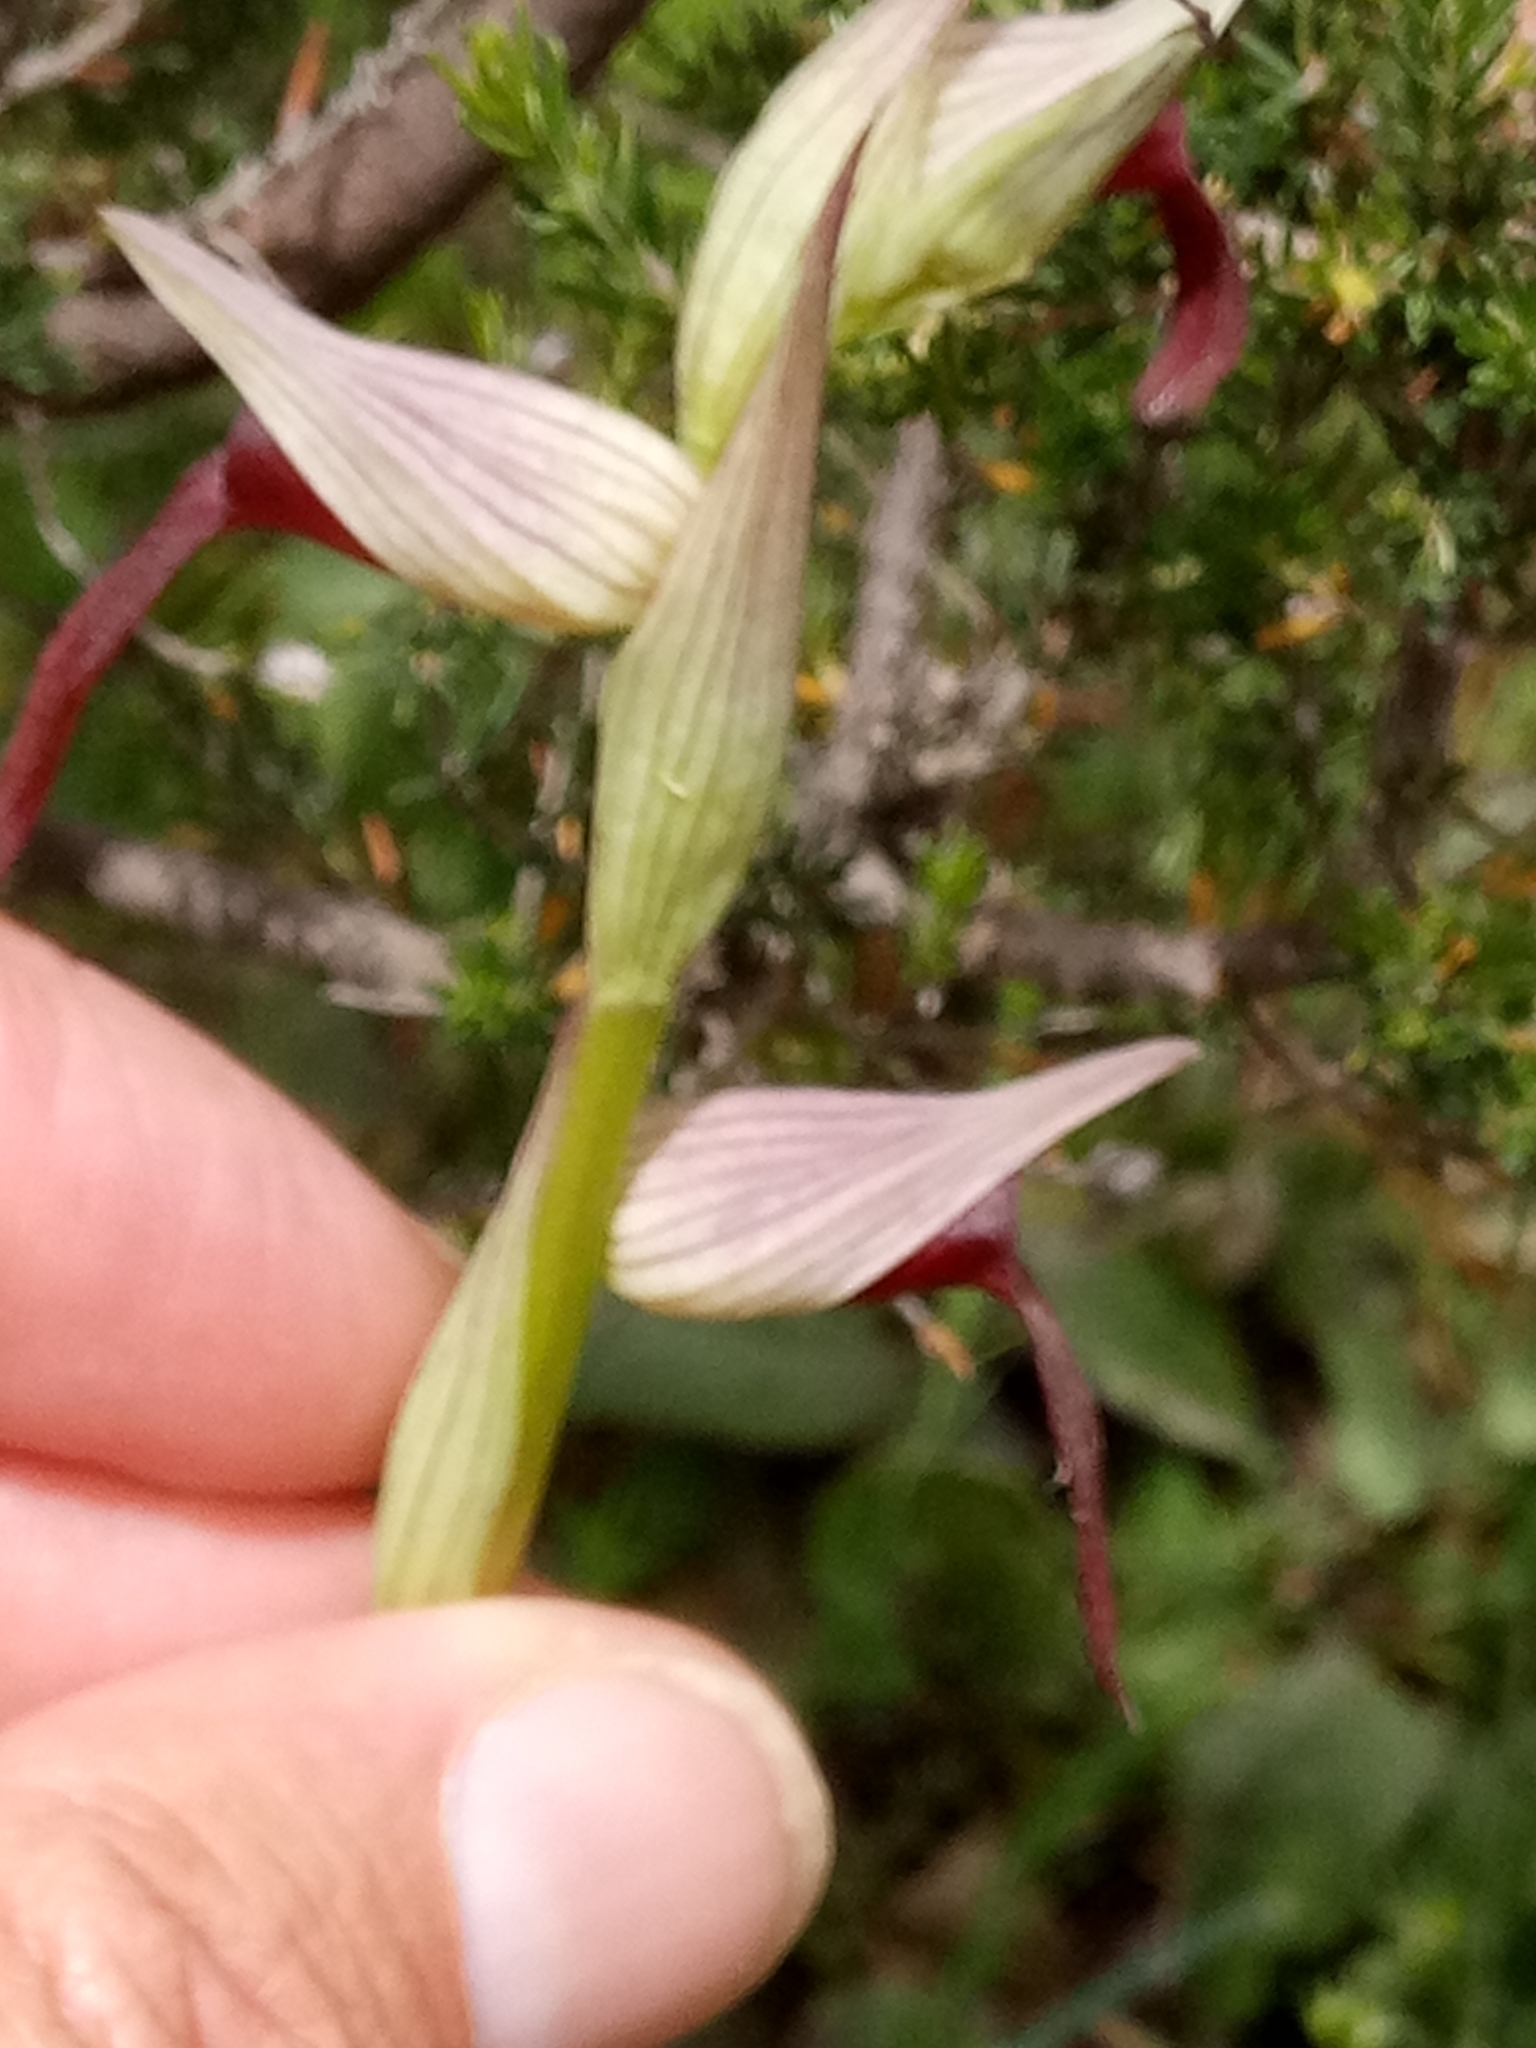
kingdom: Plantae
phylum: Tracheophyta
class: Liliopsida
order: Asparagales
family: Orchidaceae
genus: Serapias
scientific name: Serapias lingua
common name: Tongue-orchid
